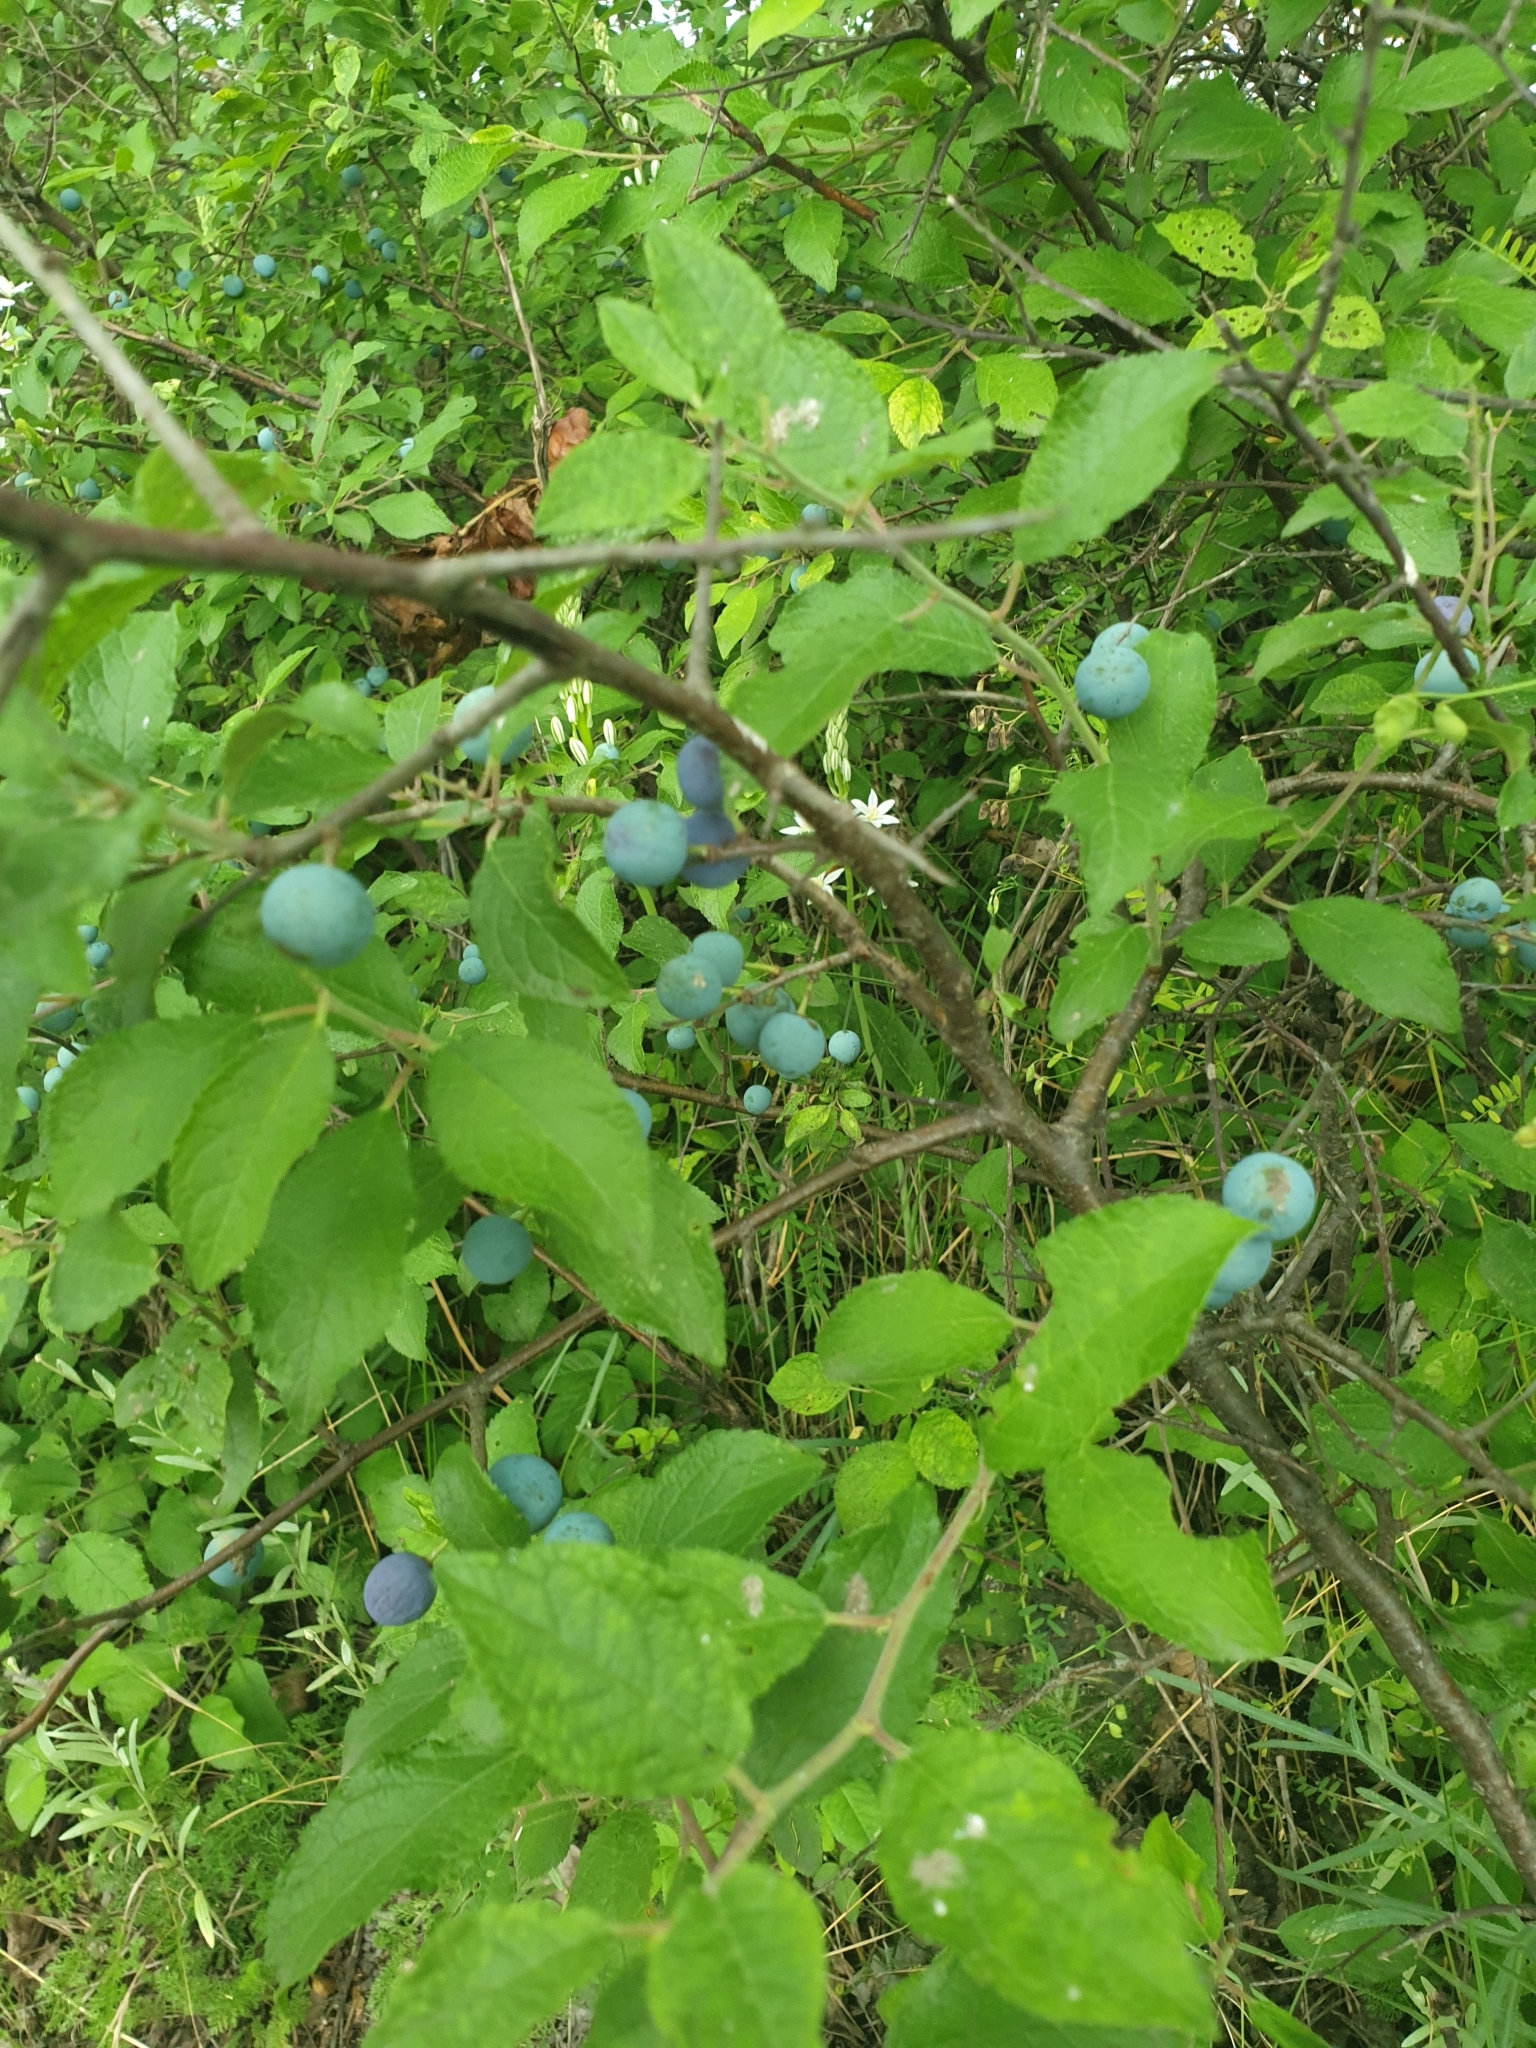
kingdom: Plantae
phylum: Tracheophyta
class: Magnoliopsida
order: Rosales
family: Rosaceae
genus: Prunus
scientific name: Prunus spinosa
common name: Blackthorn
